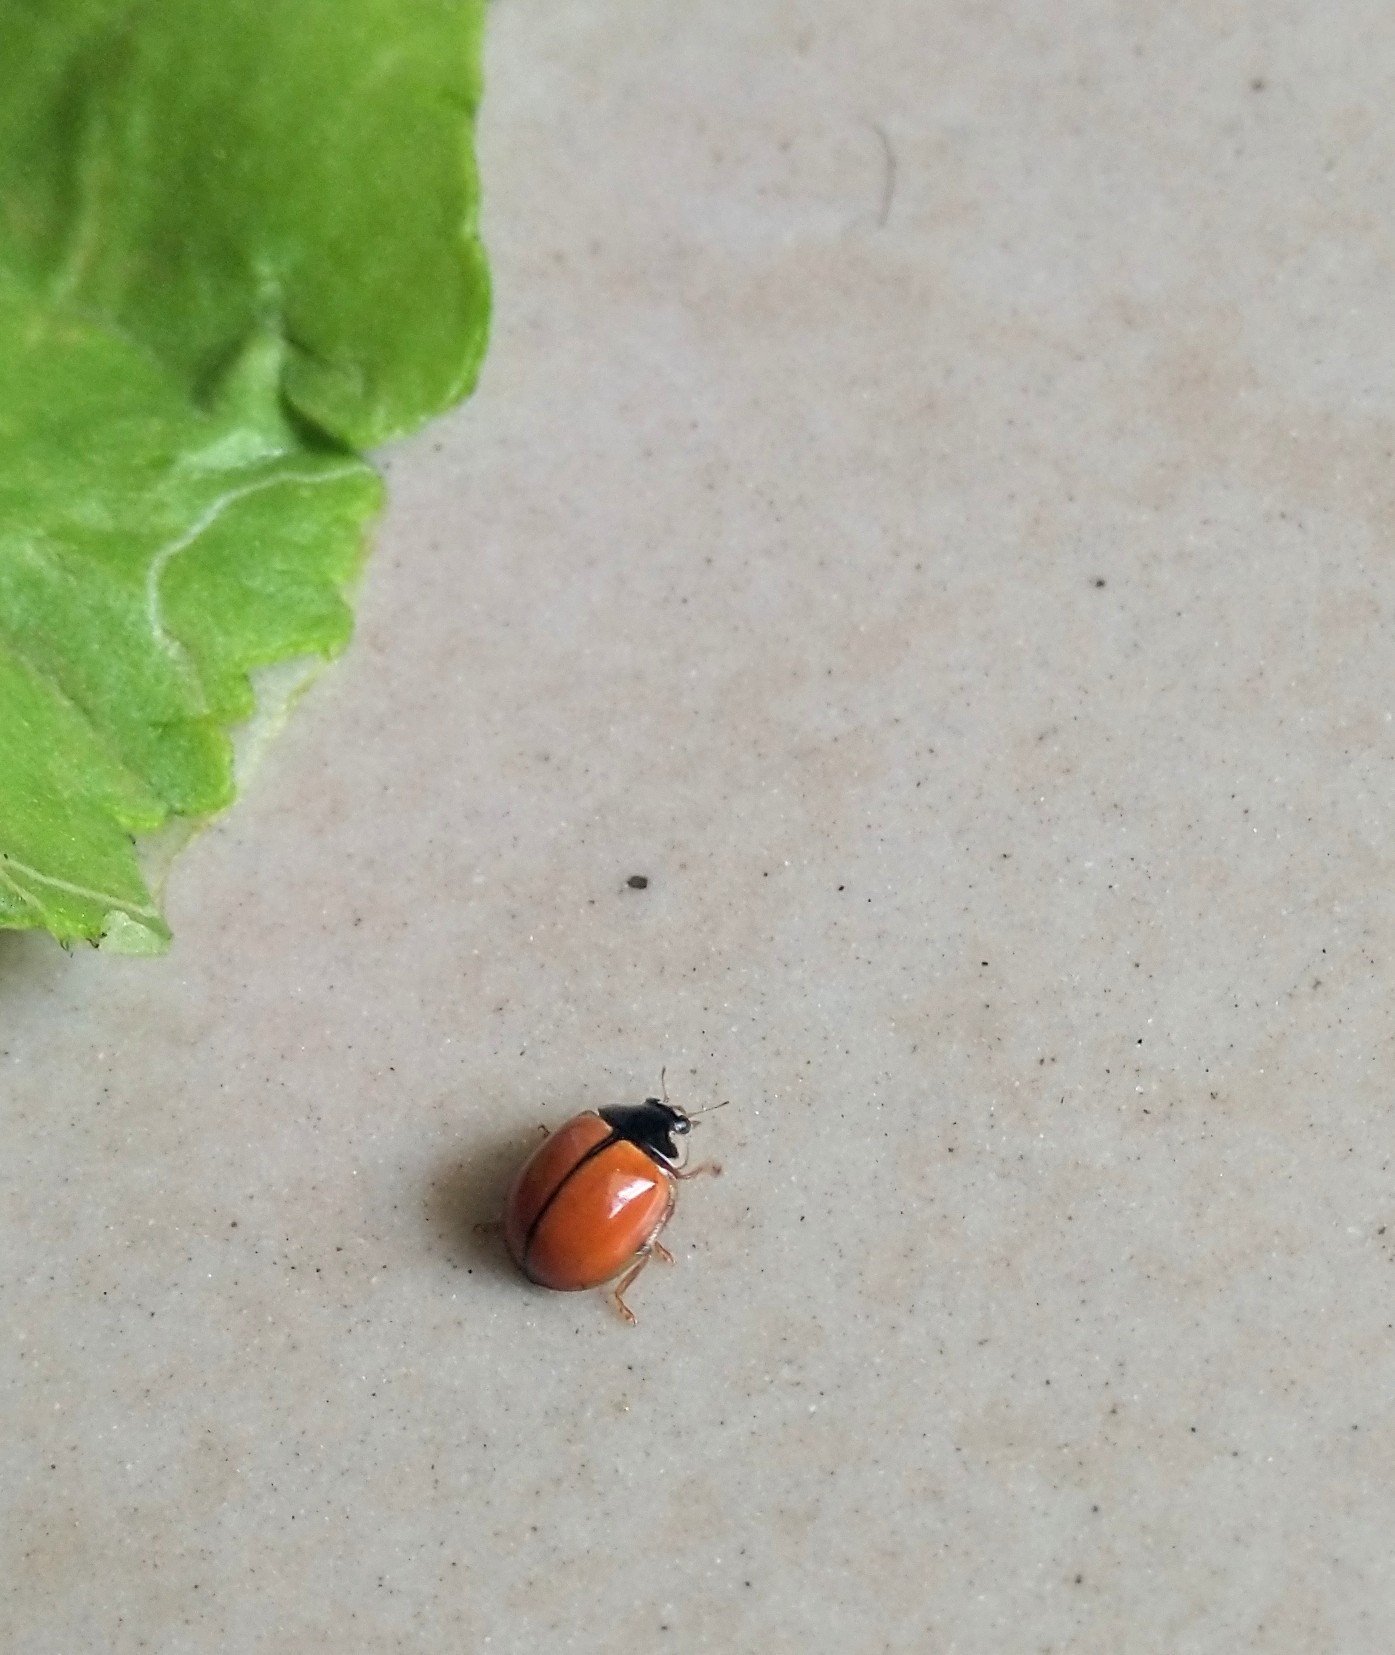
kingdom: Animalia
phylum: Arthropoda
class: Insecta
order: Coleoptera
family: Coccinellidae
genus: Propylea
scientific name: Propylea
